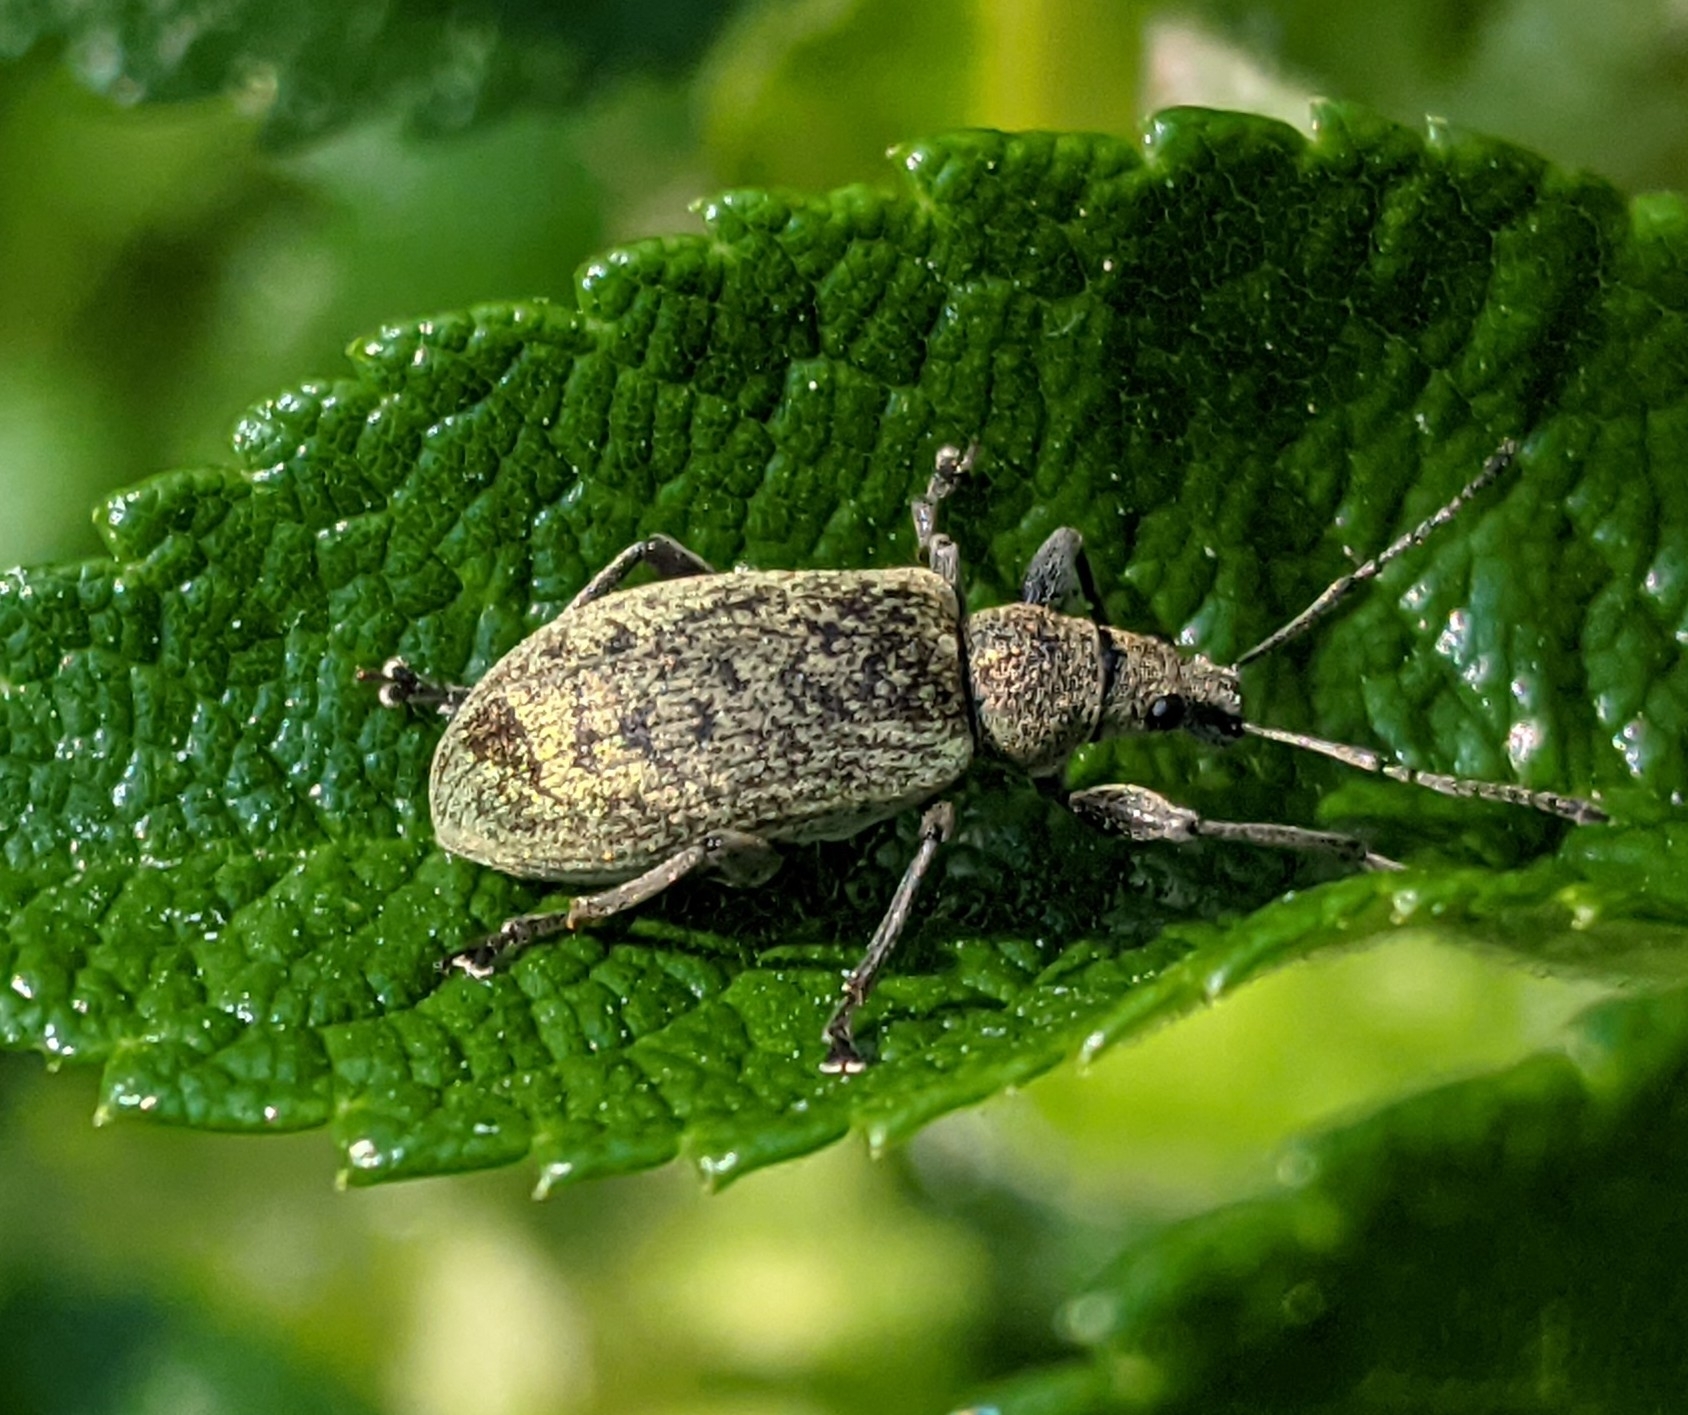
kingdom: Animalia
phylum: Arthropoda
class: Insecta
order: Coleoptera
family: Curculionidae
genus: Phyllobius
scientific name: Phyllobius pomaceus
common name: Green nettle weevil
